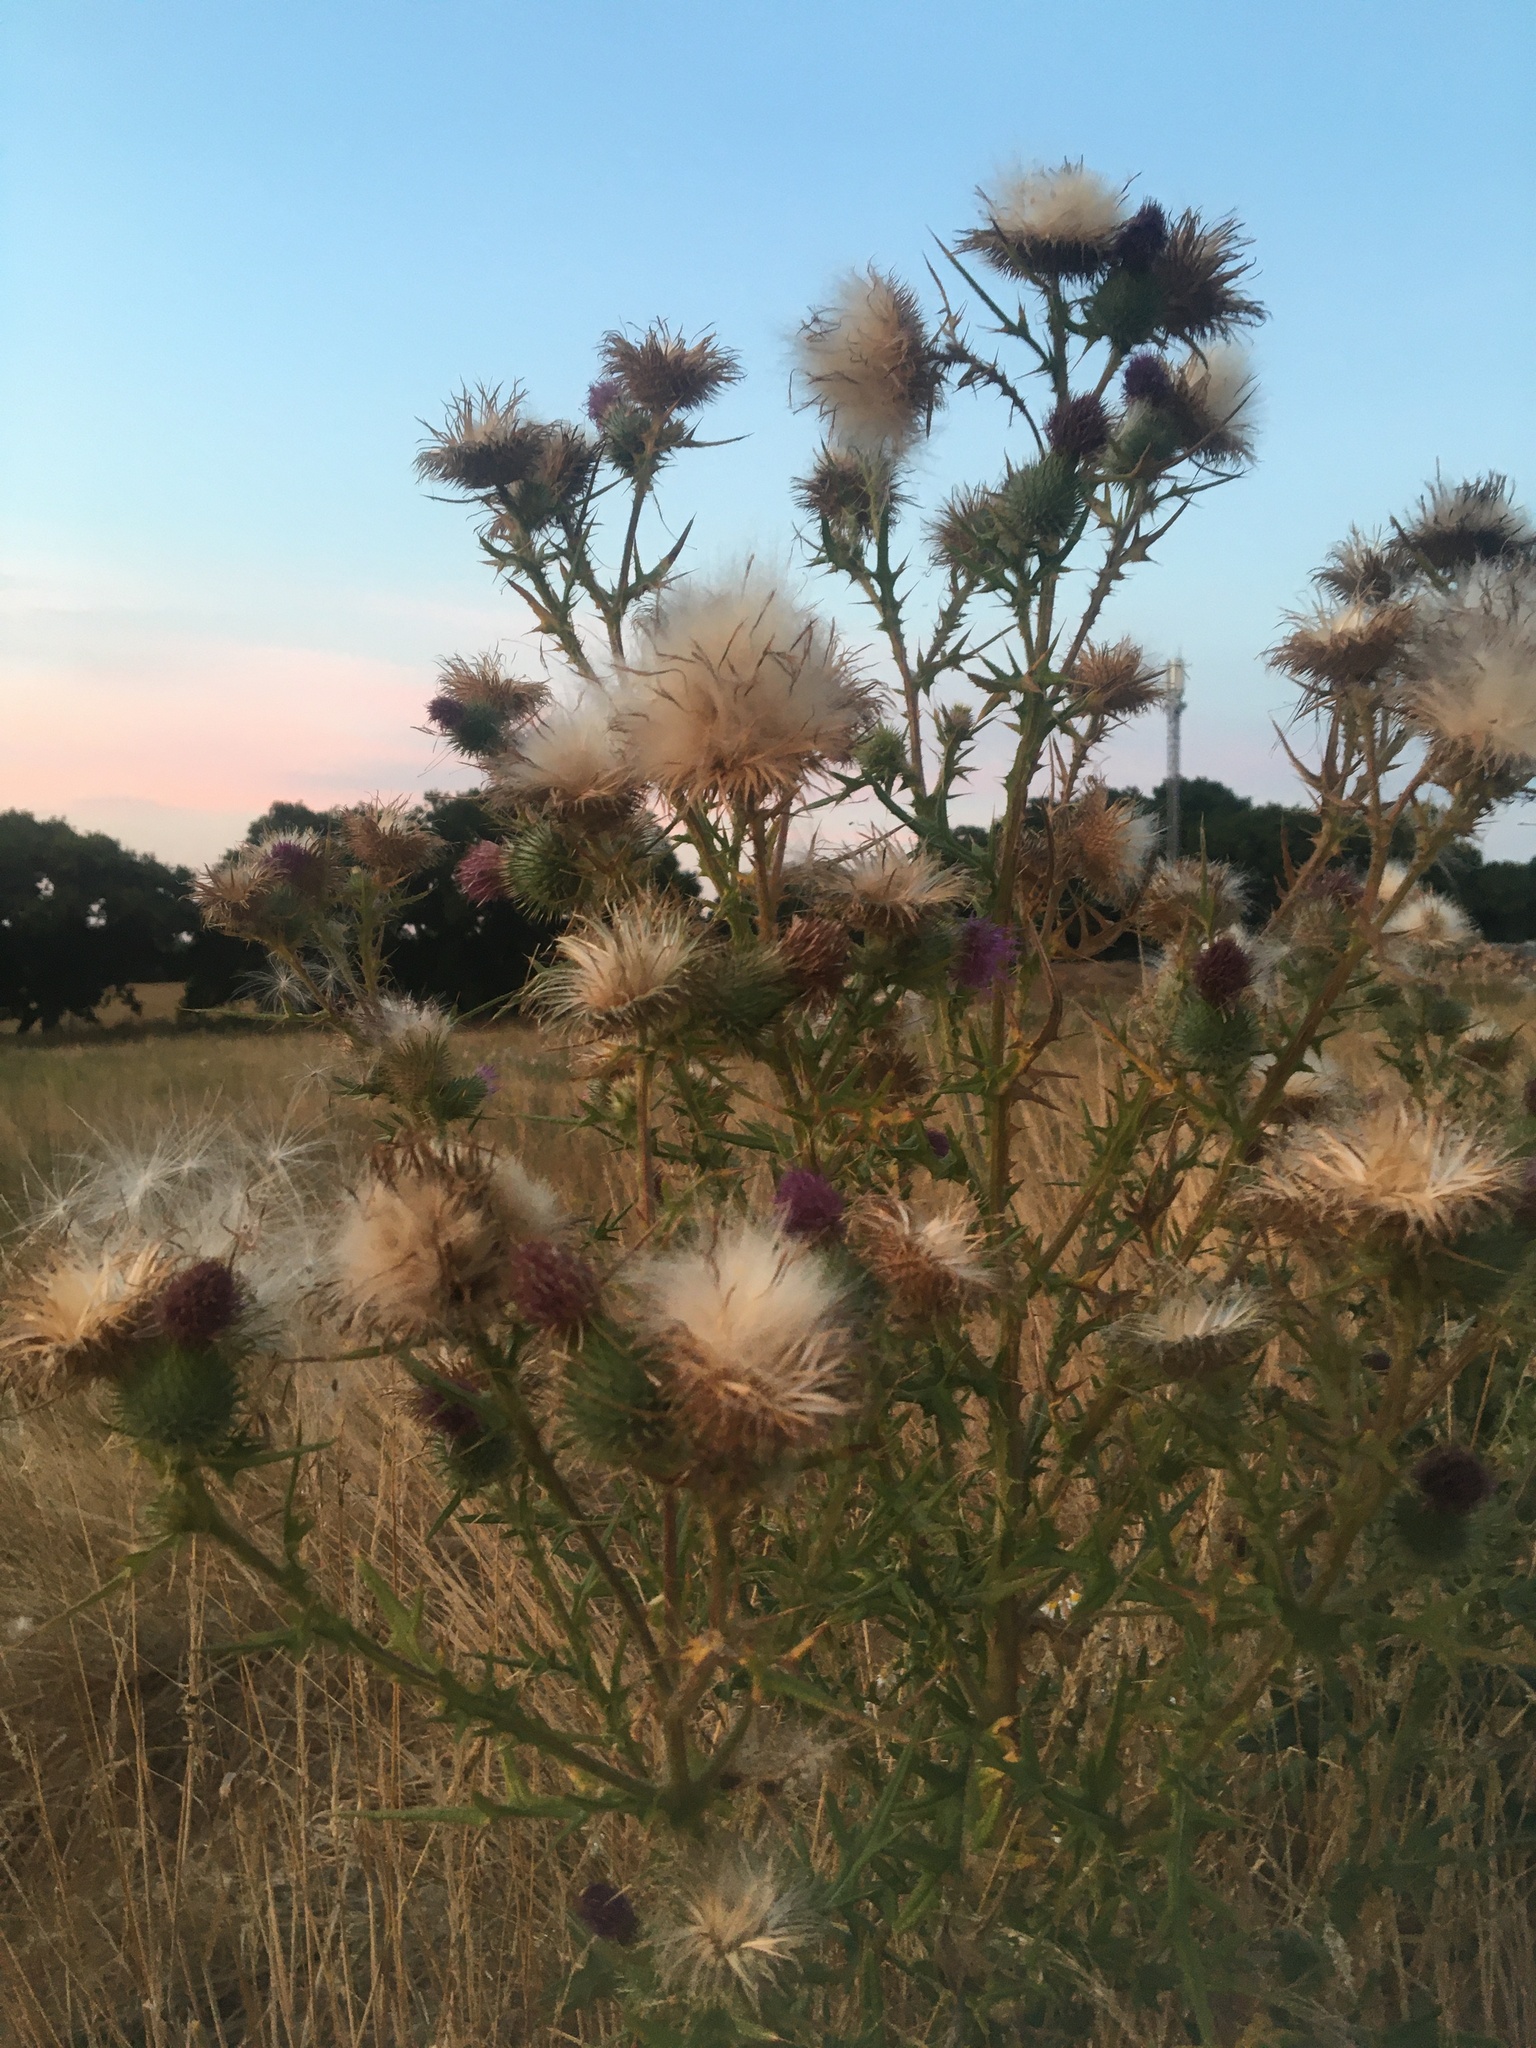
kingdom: Plantae
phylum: Tracheophyta
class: Magnoliopsida
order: Asterales
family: Asteraceae
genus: Cirsium
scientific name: Cirsium vulgare
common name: Bull thistle
